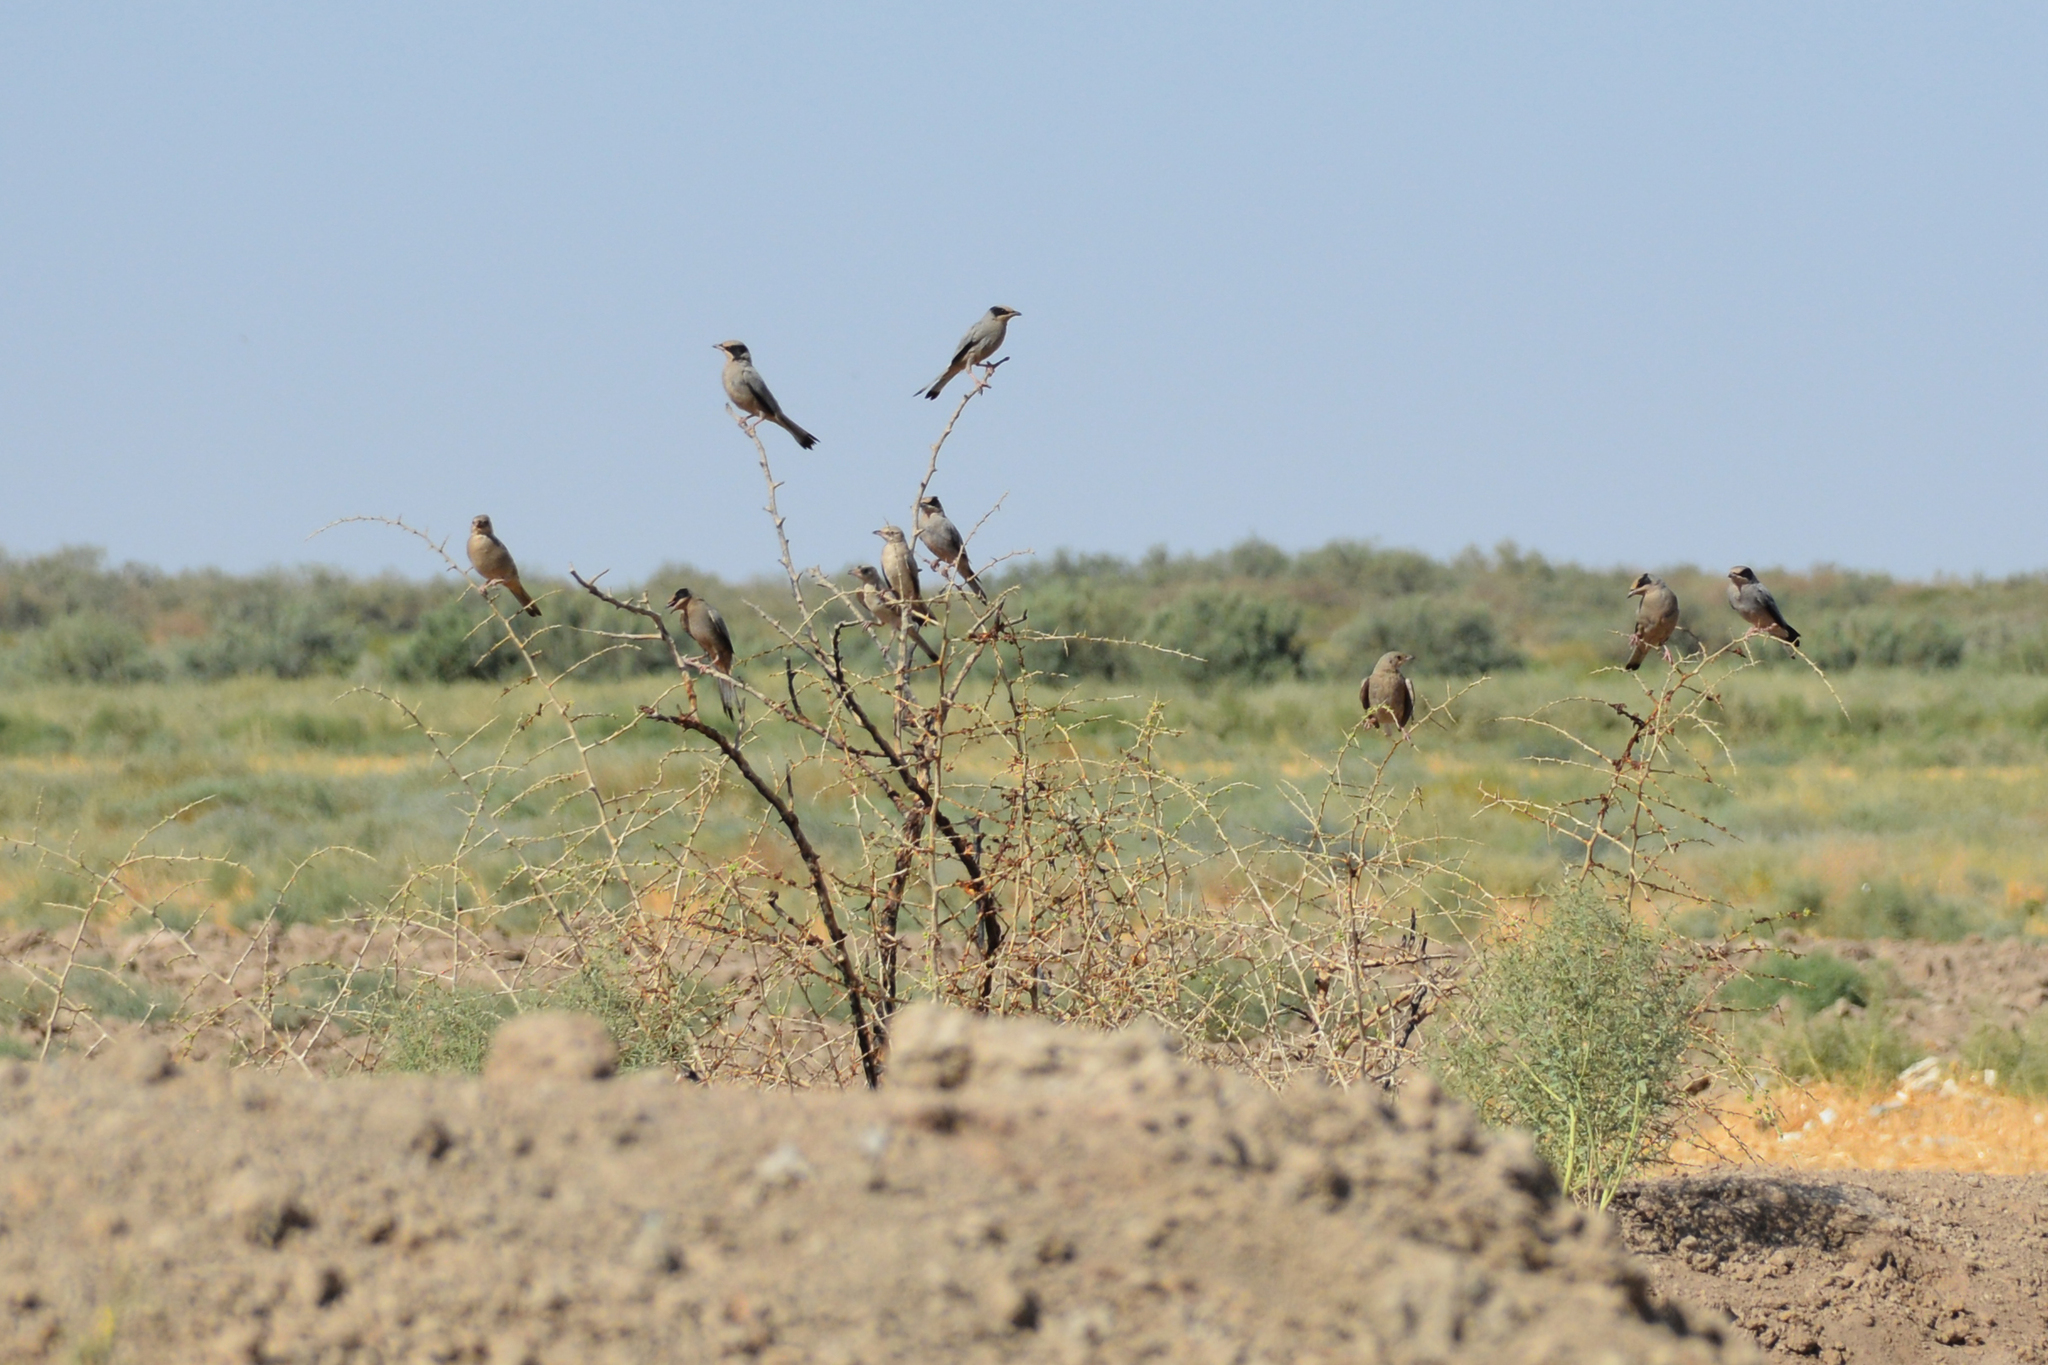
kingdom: Animalia
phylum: Chordata
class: Aves
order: Passeriformes
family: Hypocoliidae
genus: Hypocolius
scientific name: Hypocolius ampelinus
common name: Hypocolius
